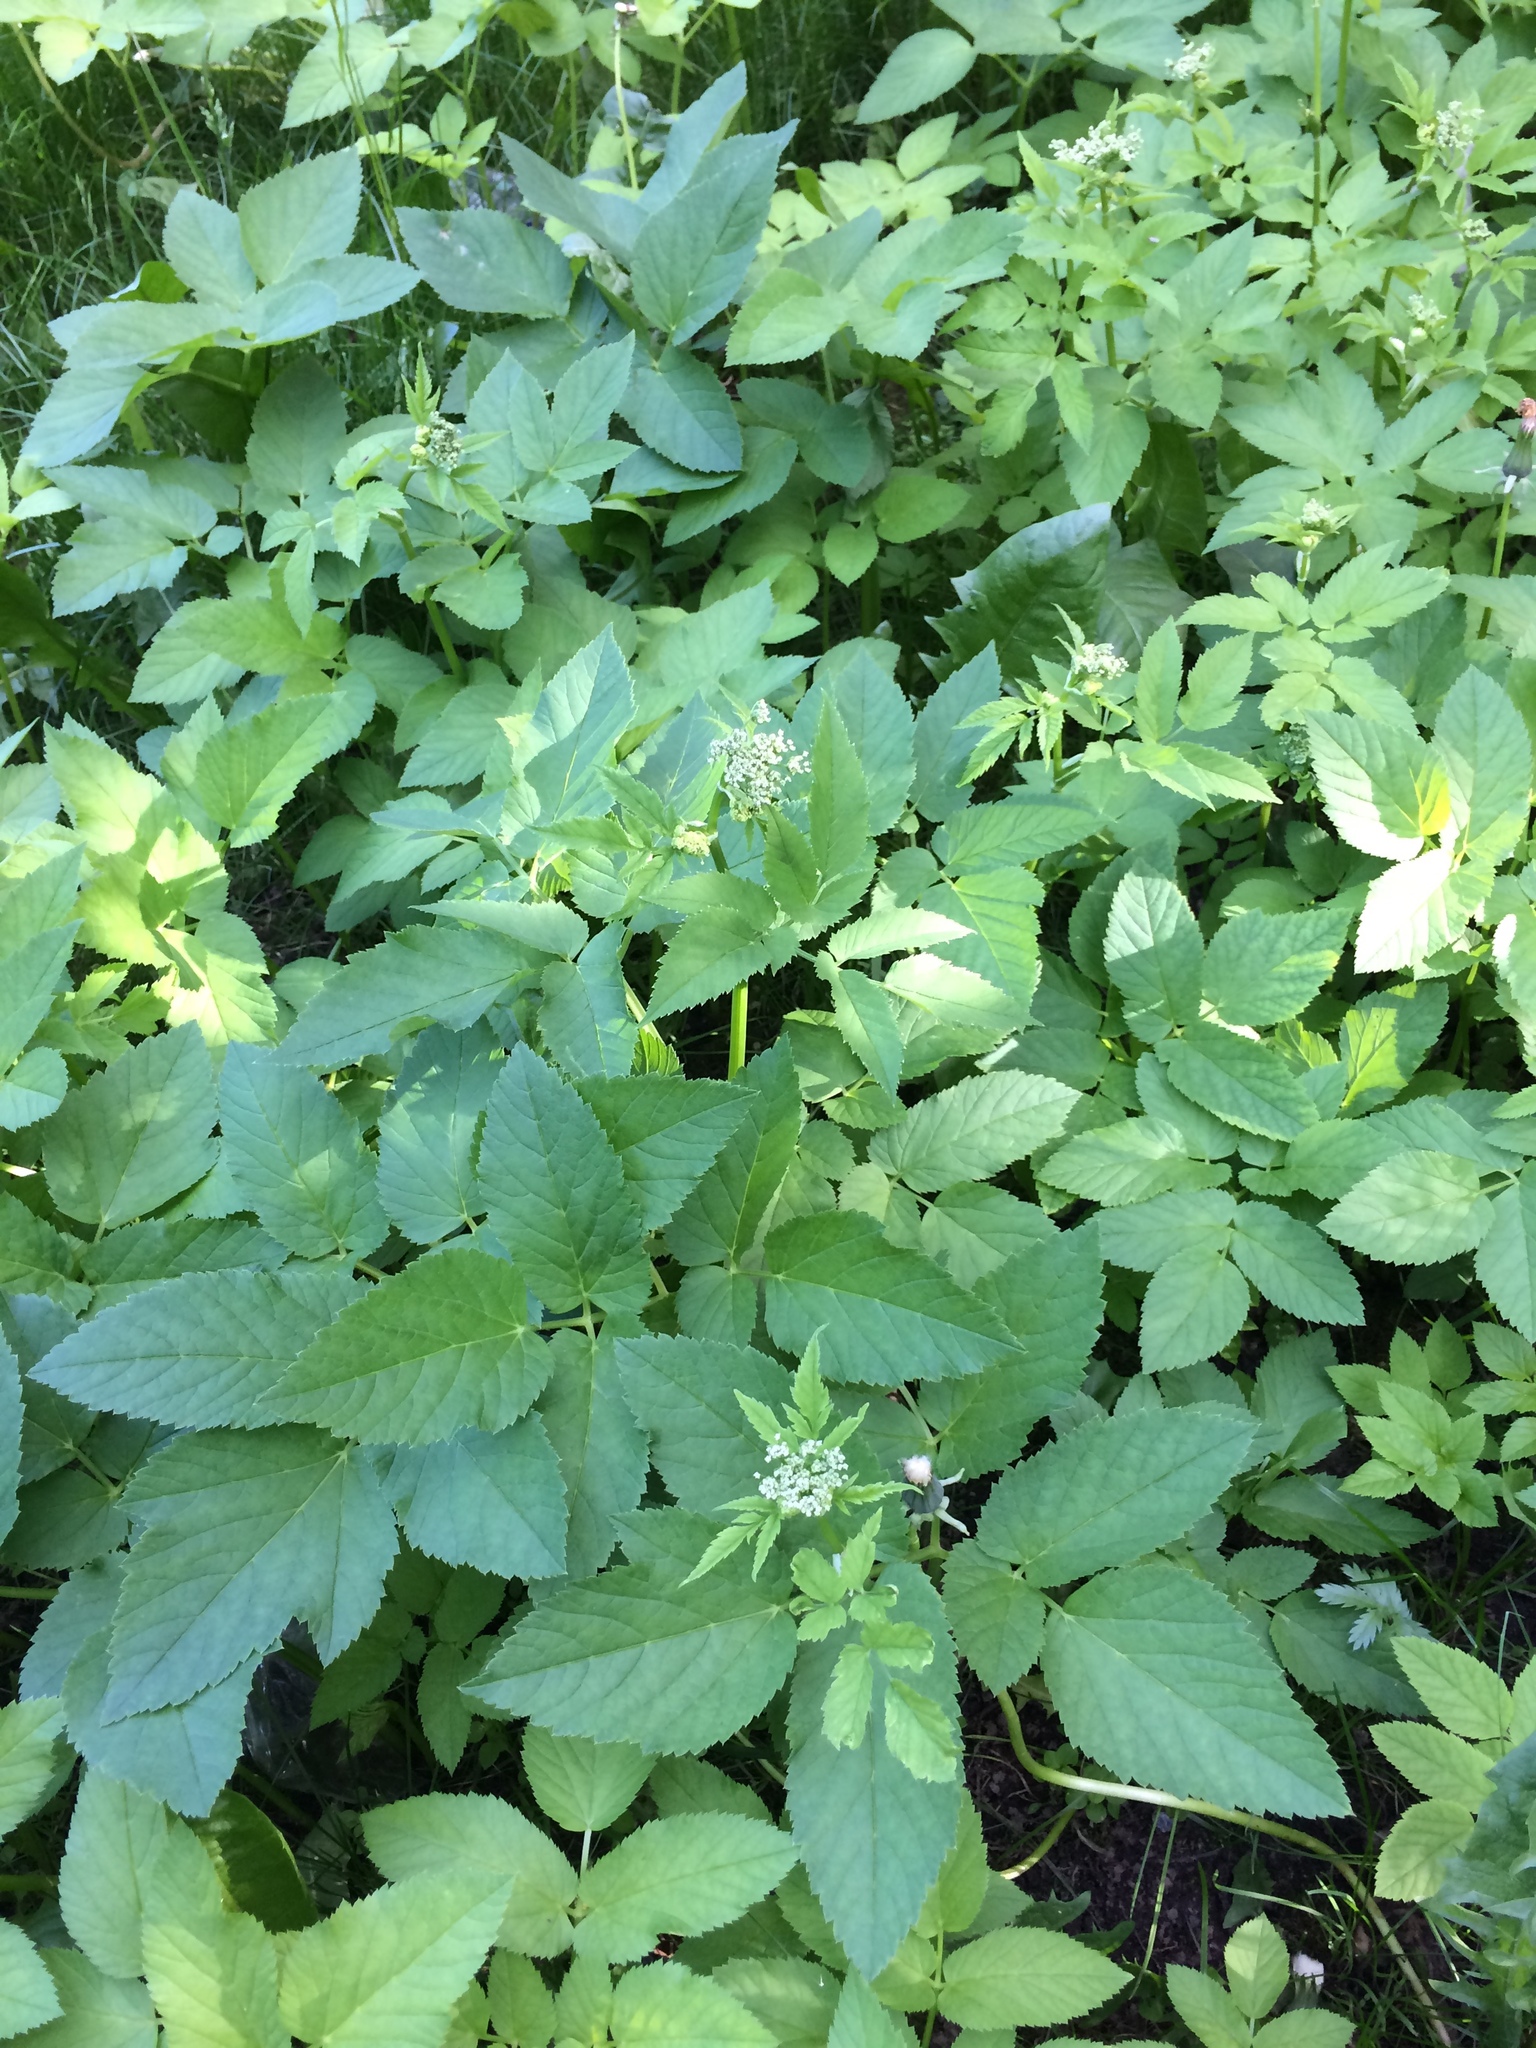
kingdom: Plantae
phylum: Tracheophyta
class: Magnoliopsida
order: Apiales
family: Apiaceae
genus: Aegopodium
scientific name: Aegopodium podagraria
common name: Ground-elder
